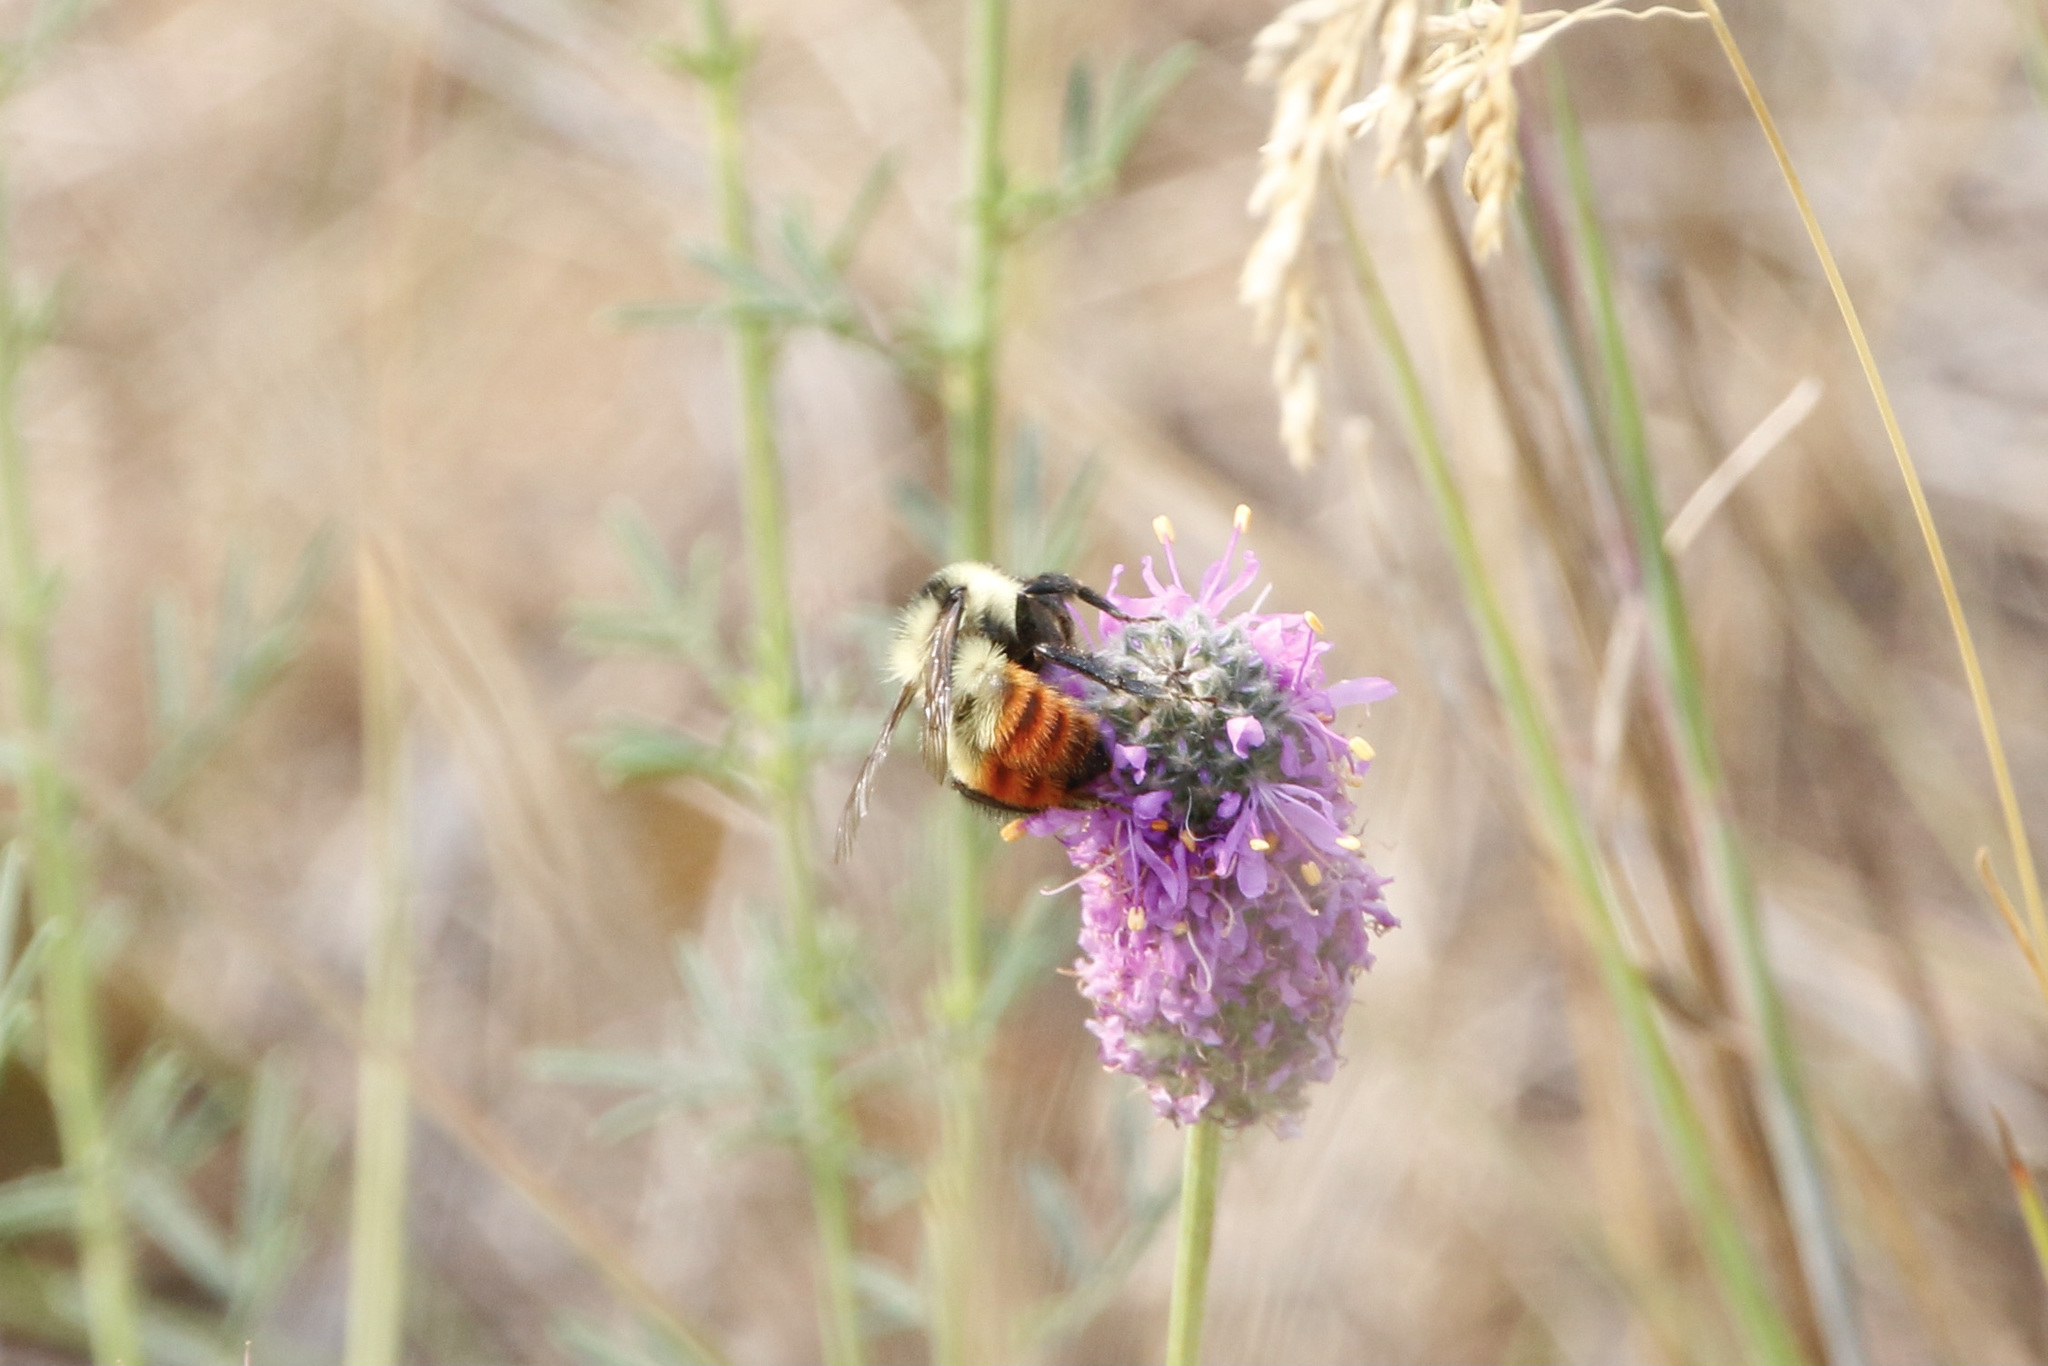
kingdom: Animalia
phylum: Arthropoda
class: Insecta
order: Hymenoptera
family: Apidae
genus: Bombus
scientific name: Bombus rufocinctus
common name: Red-belted bumble bee
